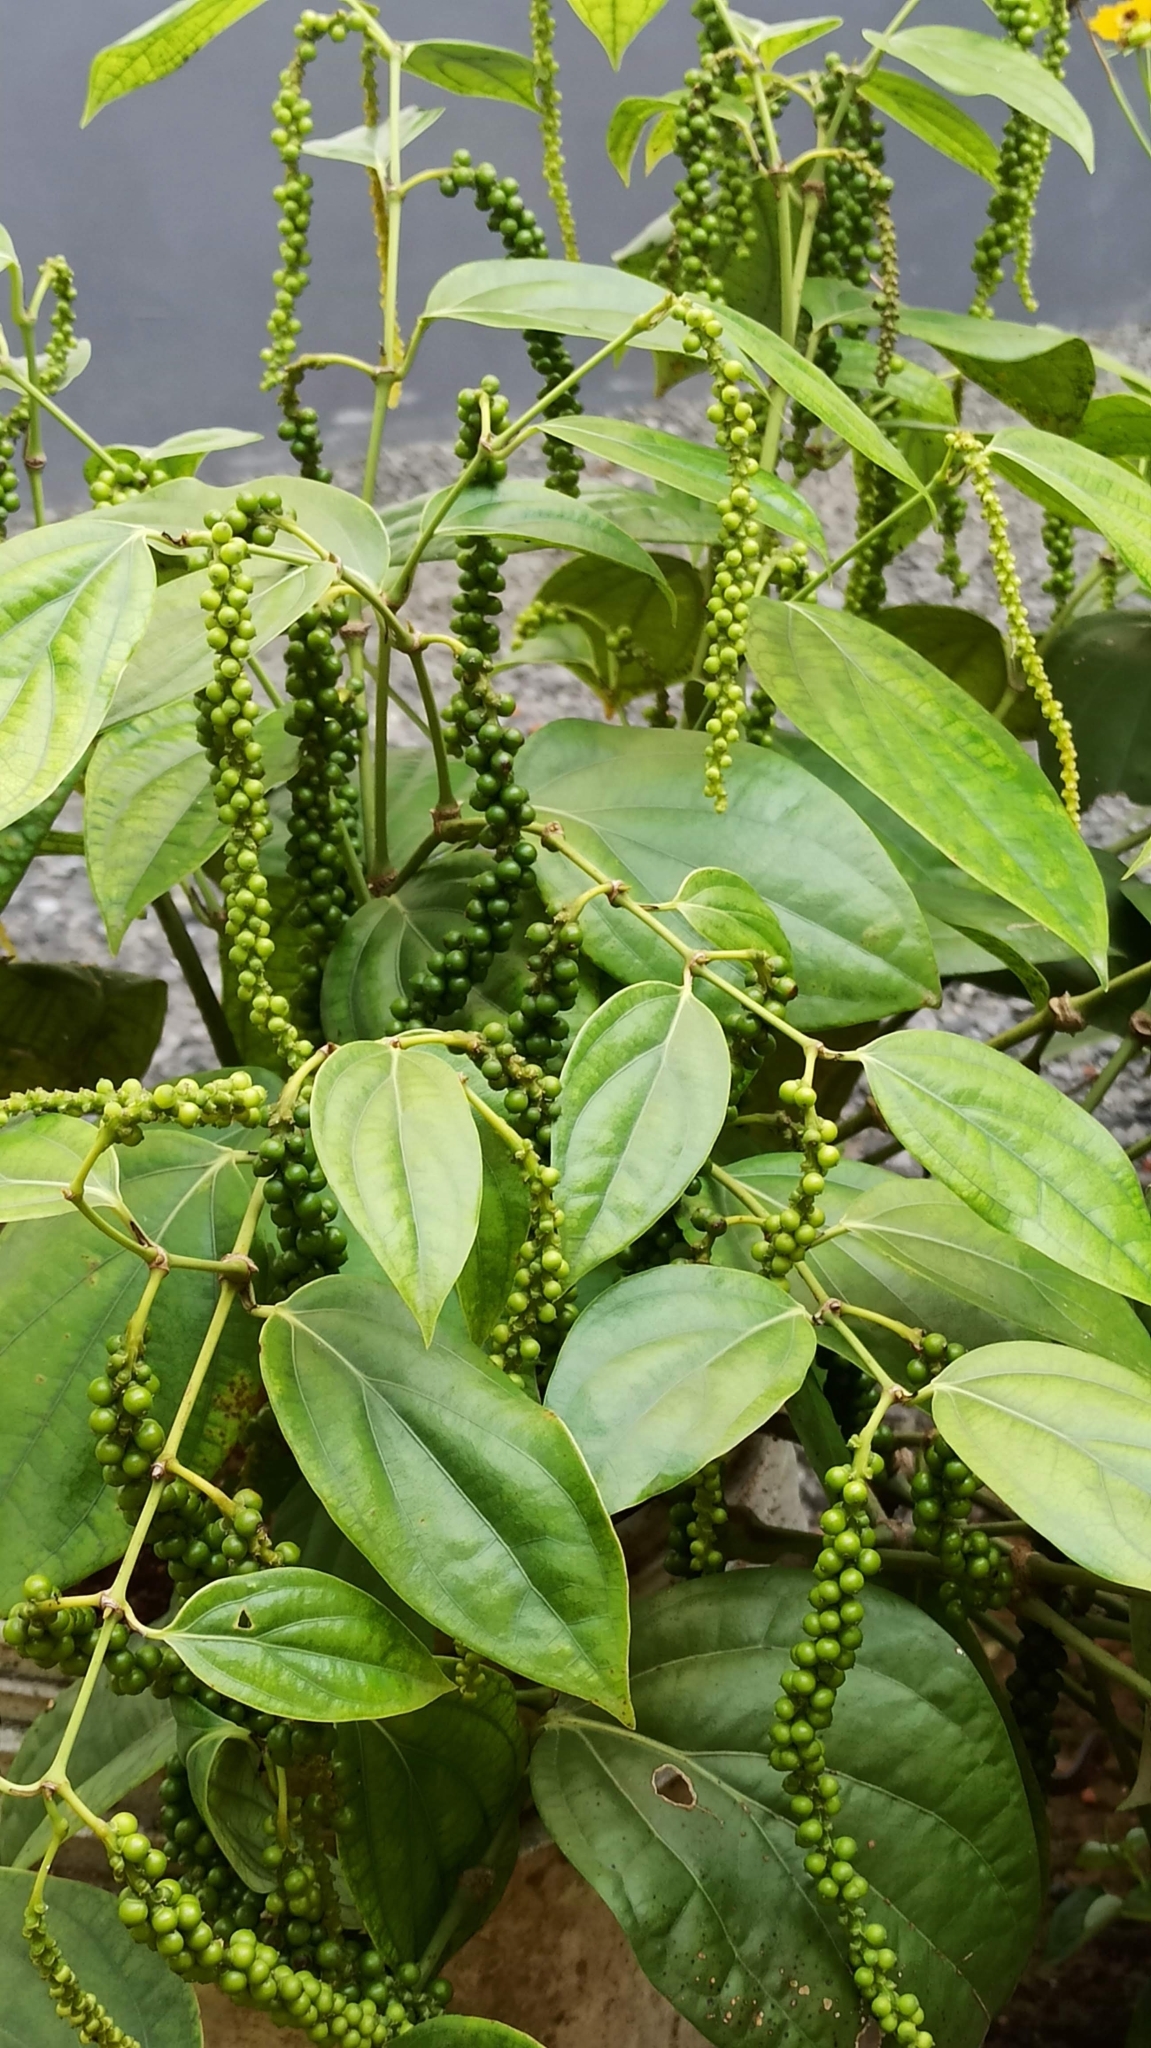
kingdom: Plantae
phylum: Tracheophyta
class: Magnoliopsida
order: Piperales
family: Piperaceae
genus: Piper
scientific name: Piper nigrum
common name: Black pepper
